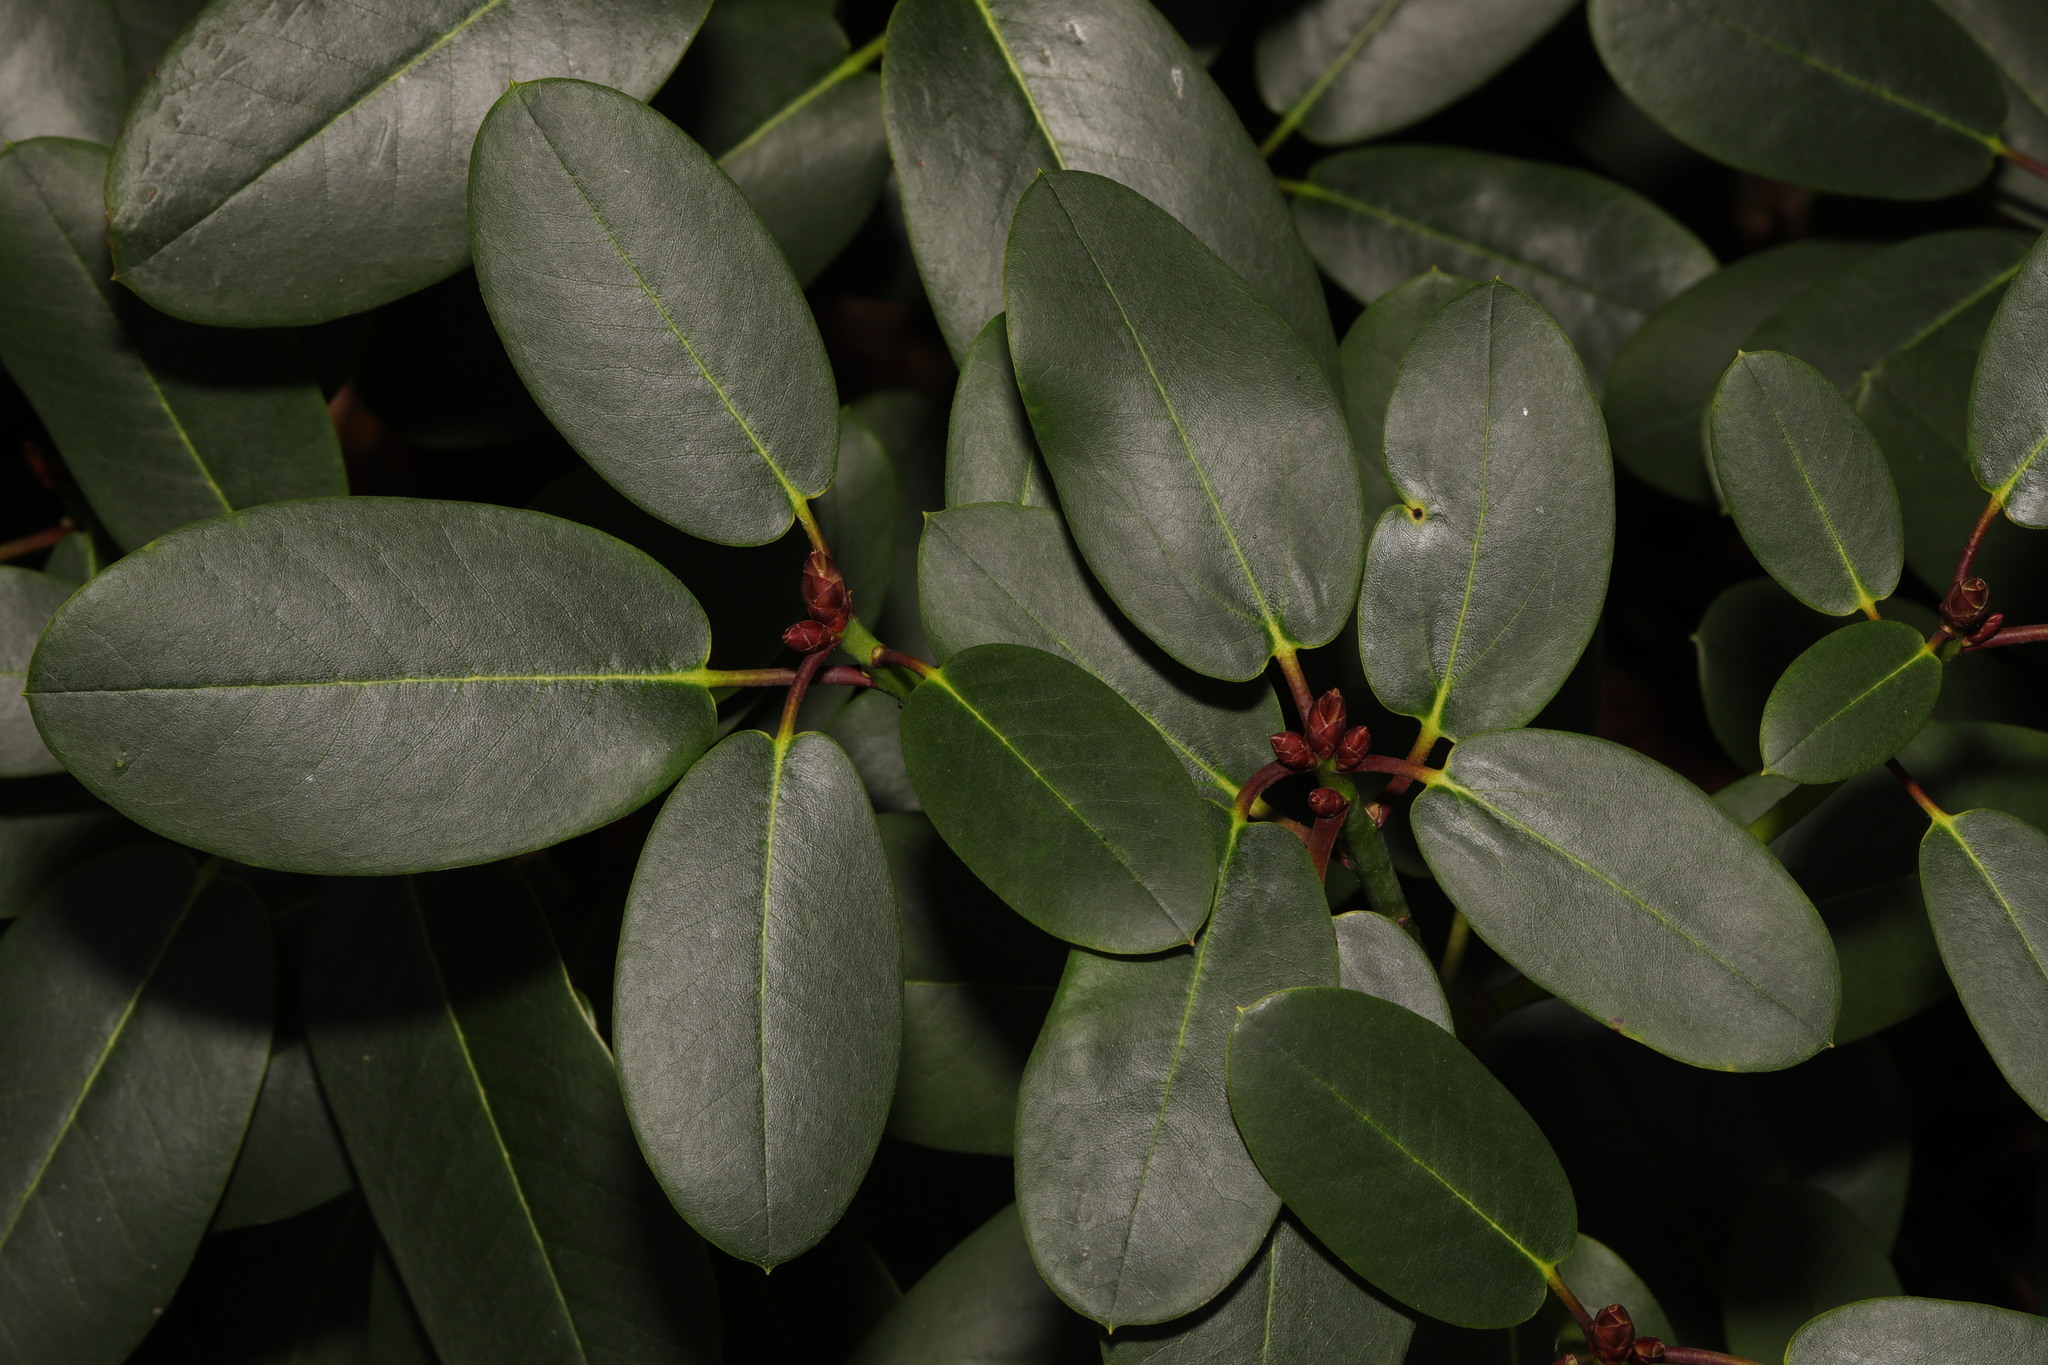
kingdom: Plantae
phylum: Tracheophyta
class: Magnoliopsida
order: Ericales
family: Ericaceae
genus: Rhododendron
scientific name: Rhododendron
